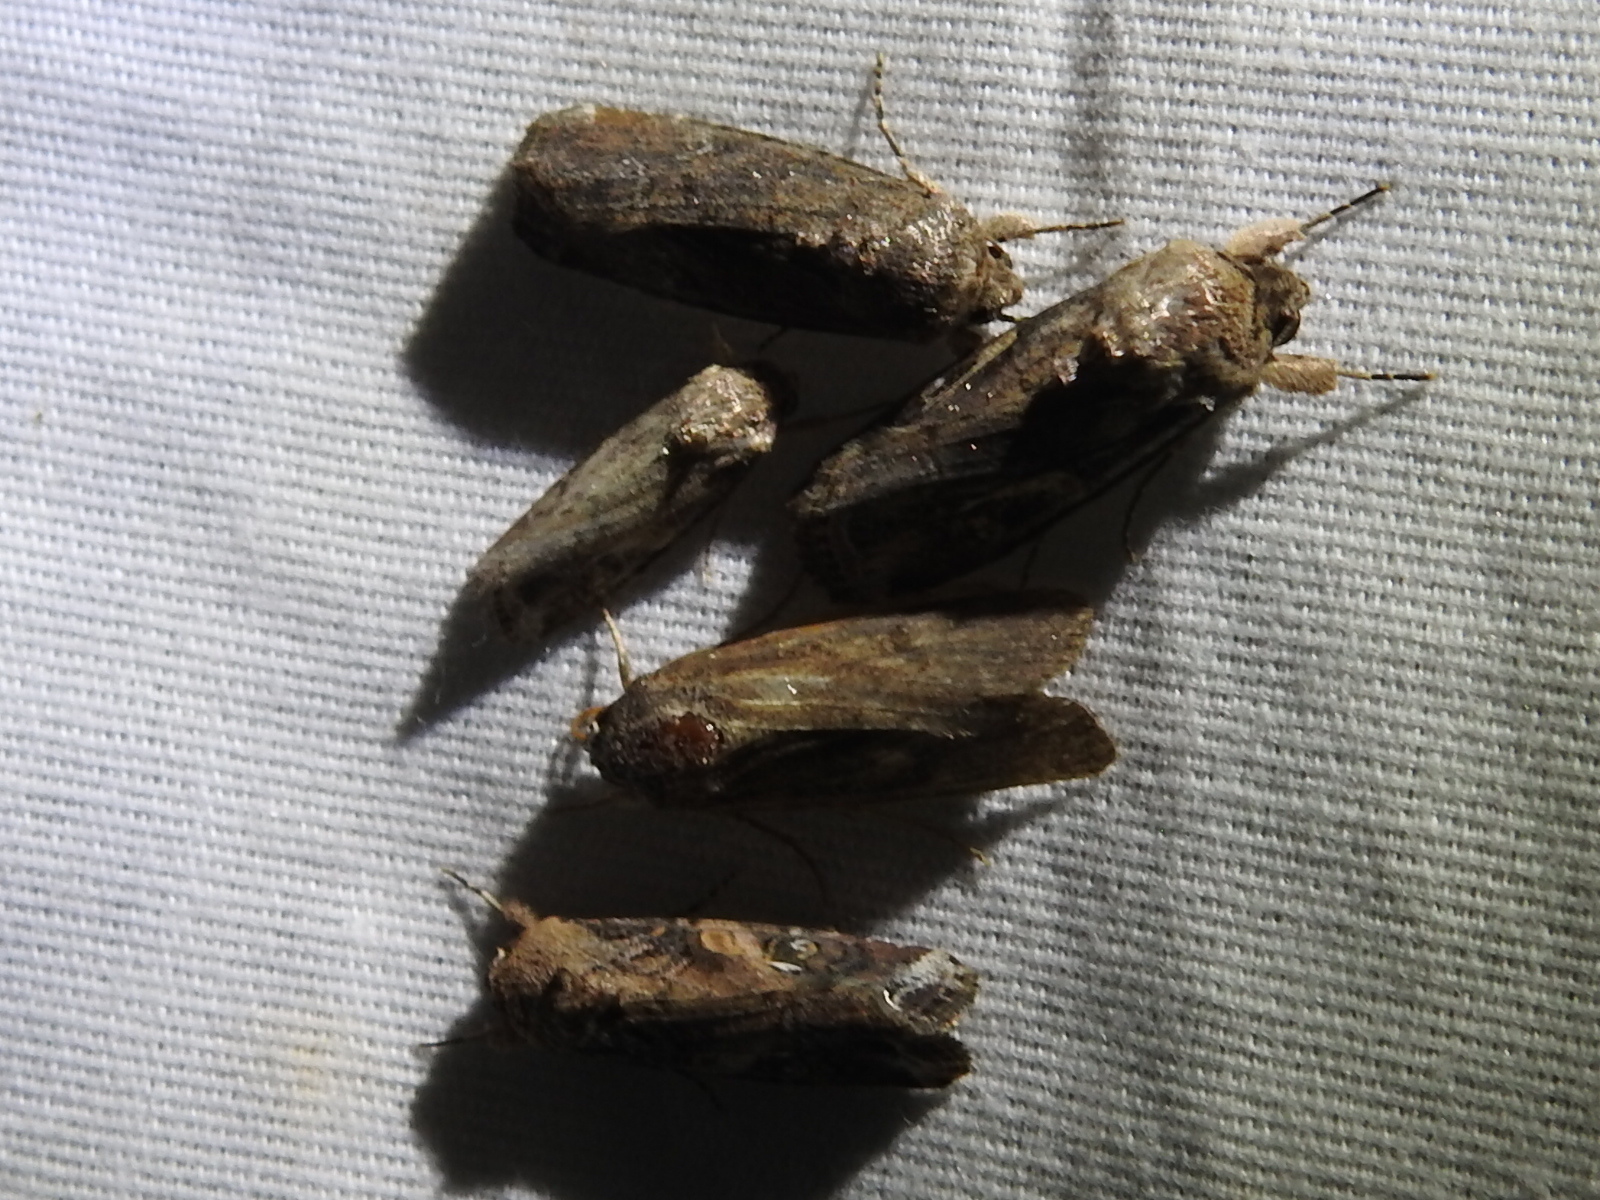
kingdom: Animalia
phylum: Arthropoda
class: Insecta
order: Lepidoptera
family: Noctuidae
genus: Spodoptera
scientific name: Spodoptera frugiperda
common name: Fall armyworm
